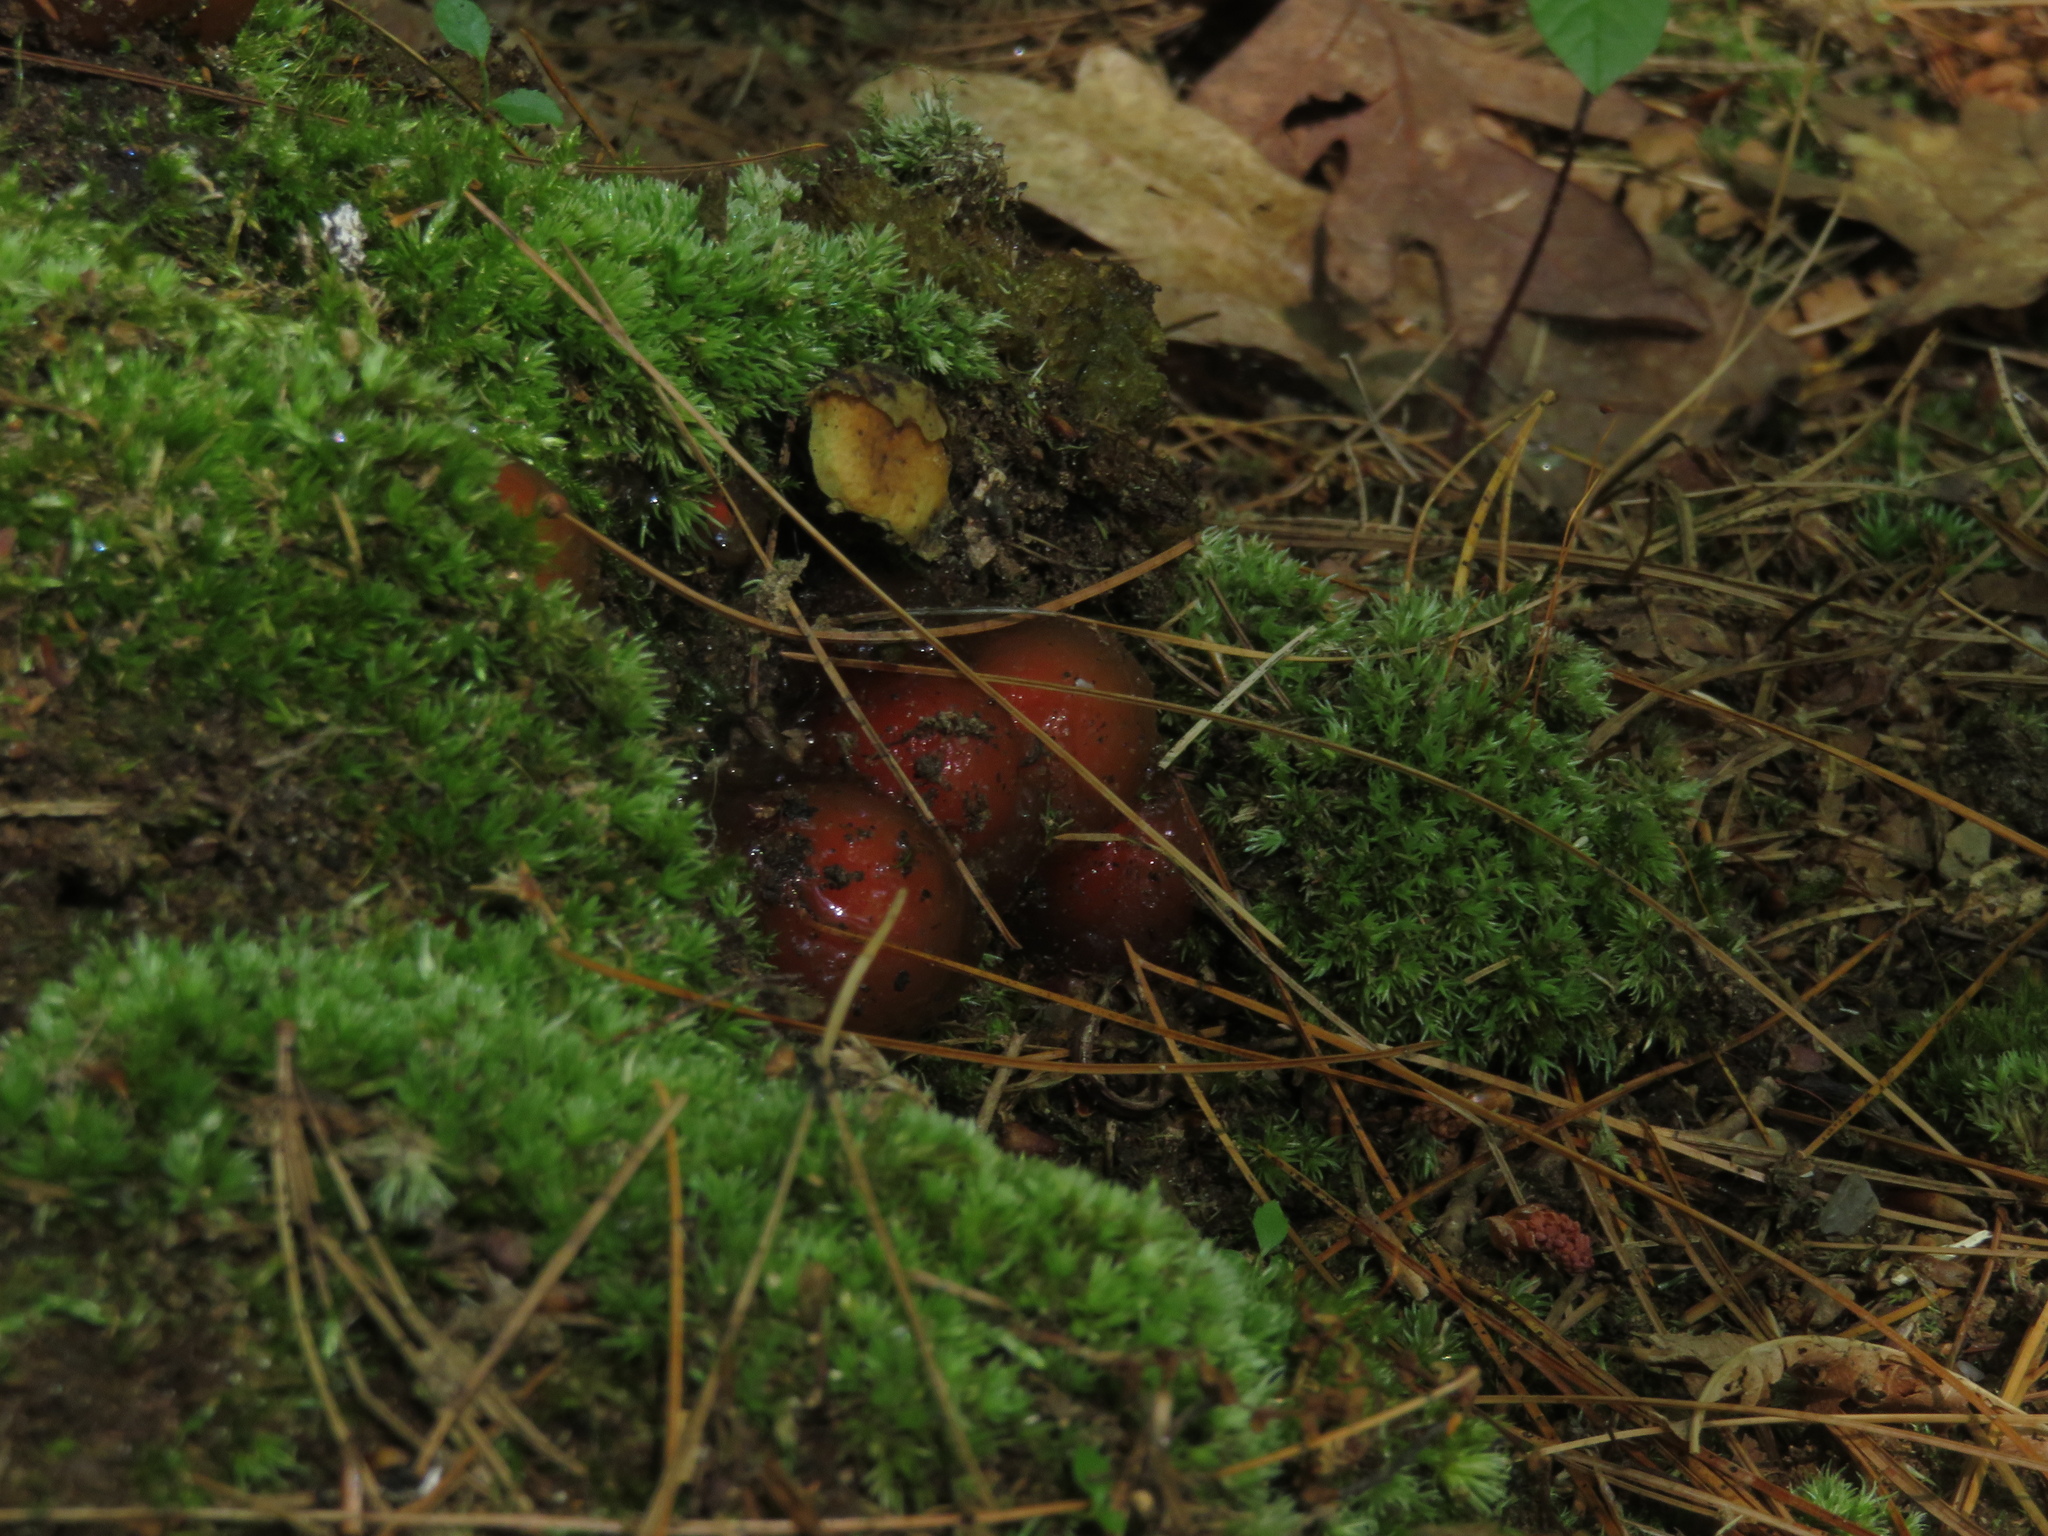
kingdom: Fungi
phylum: Basidiomycota
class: Agaricomycetes
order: Boletales
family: Calostomataceae
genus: Calostoma
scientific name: Calostoma cinnabarinum
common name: Stalked puffball-in-aspic
